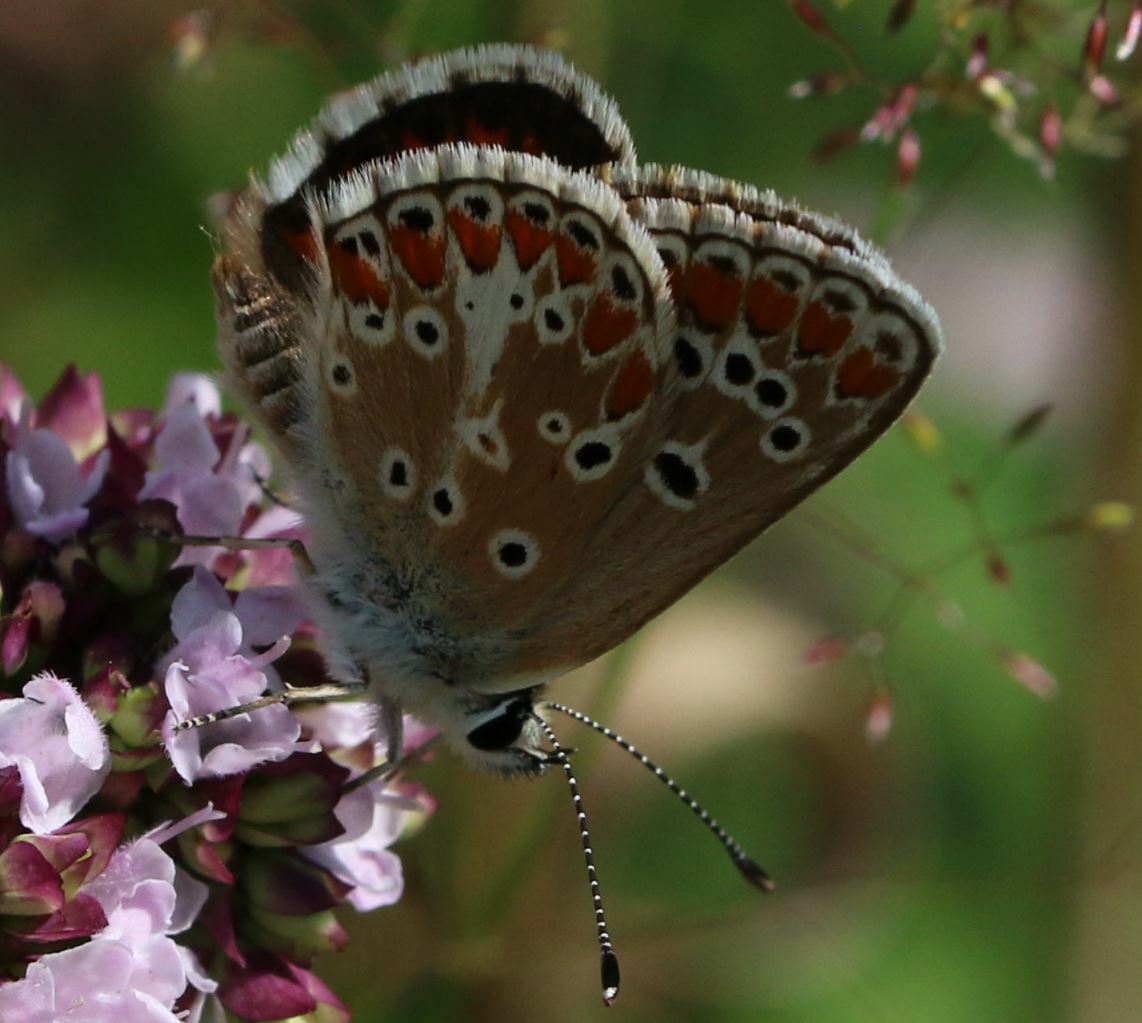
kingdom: Animalia
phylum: Arthropoda
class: Insecta
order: Lepidoptera
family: Lycaenidae
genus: Aricia
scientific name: Aricia agestis
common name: Brown argus
